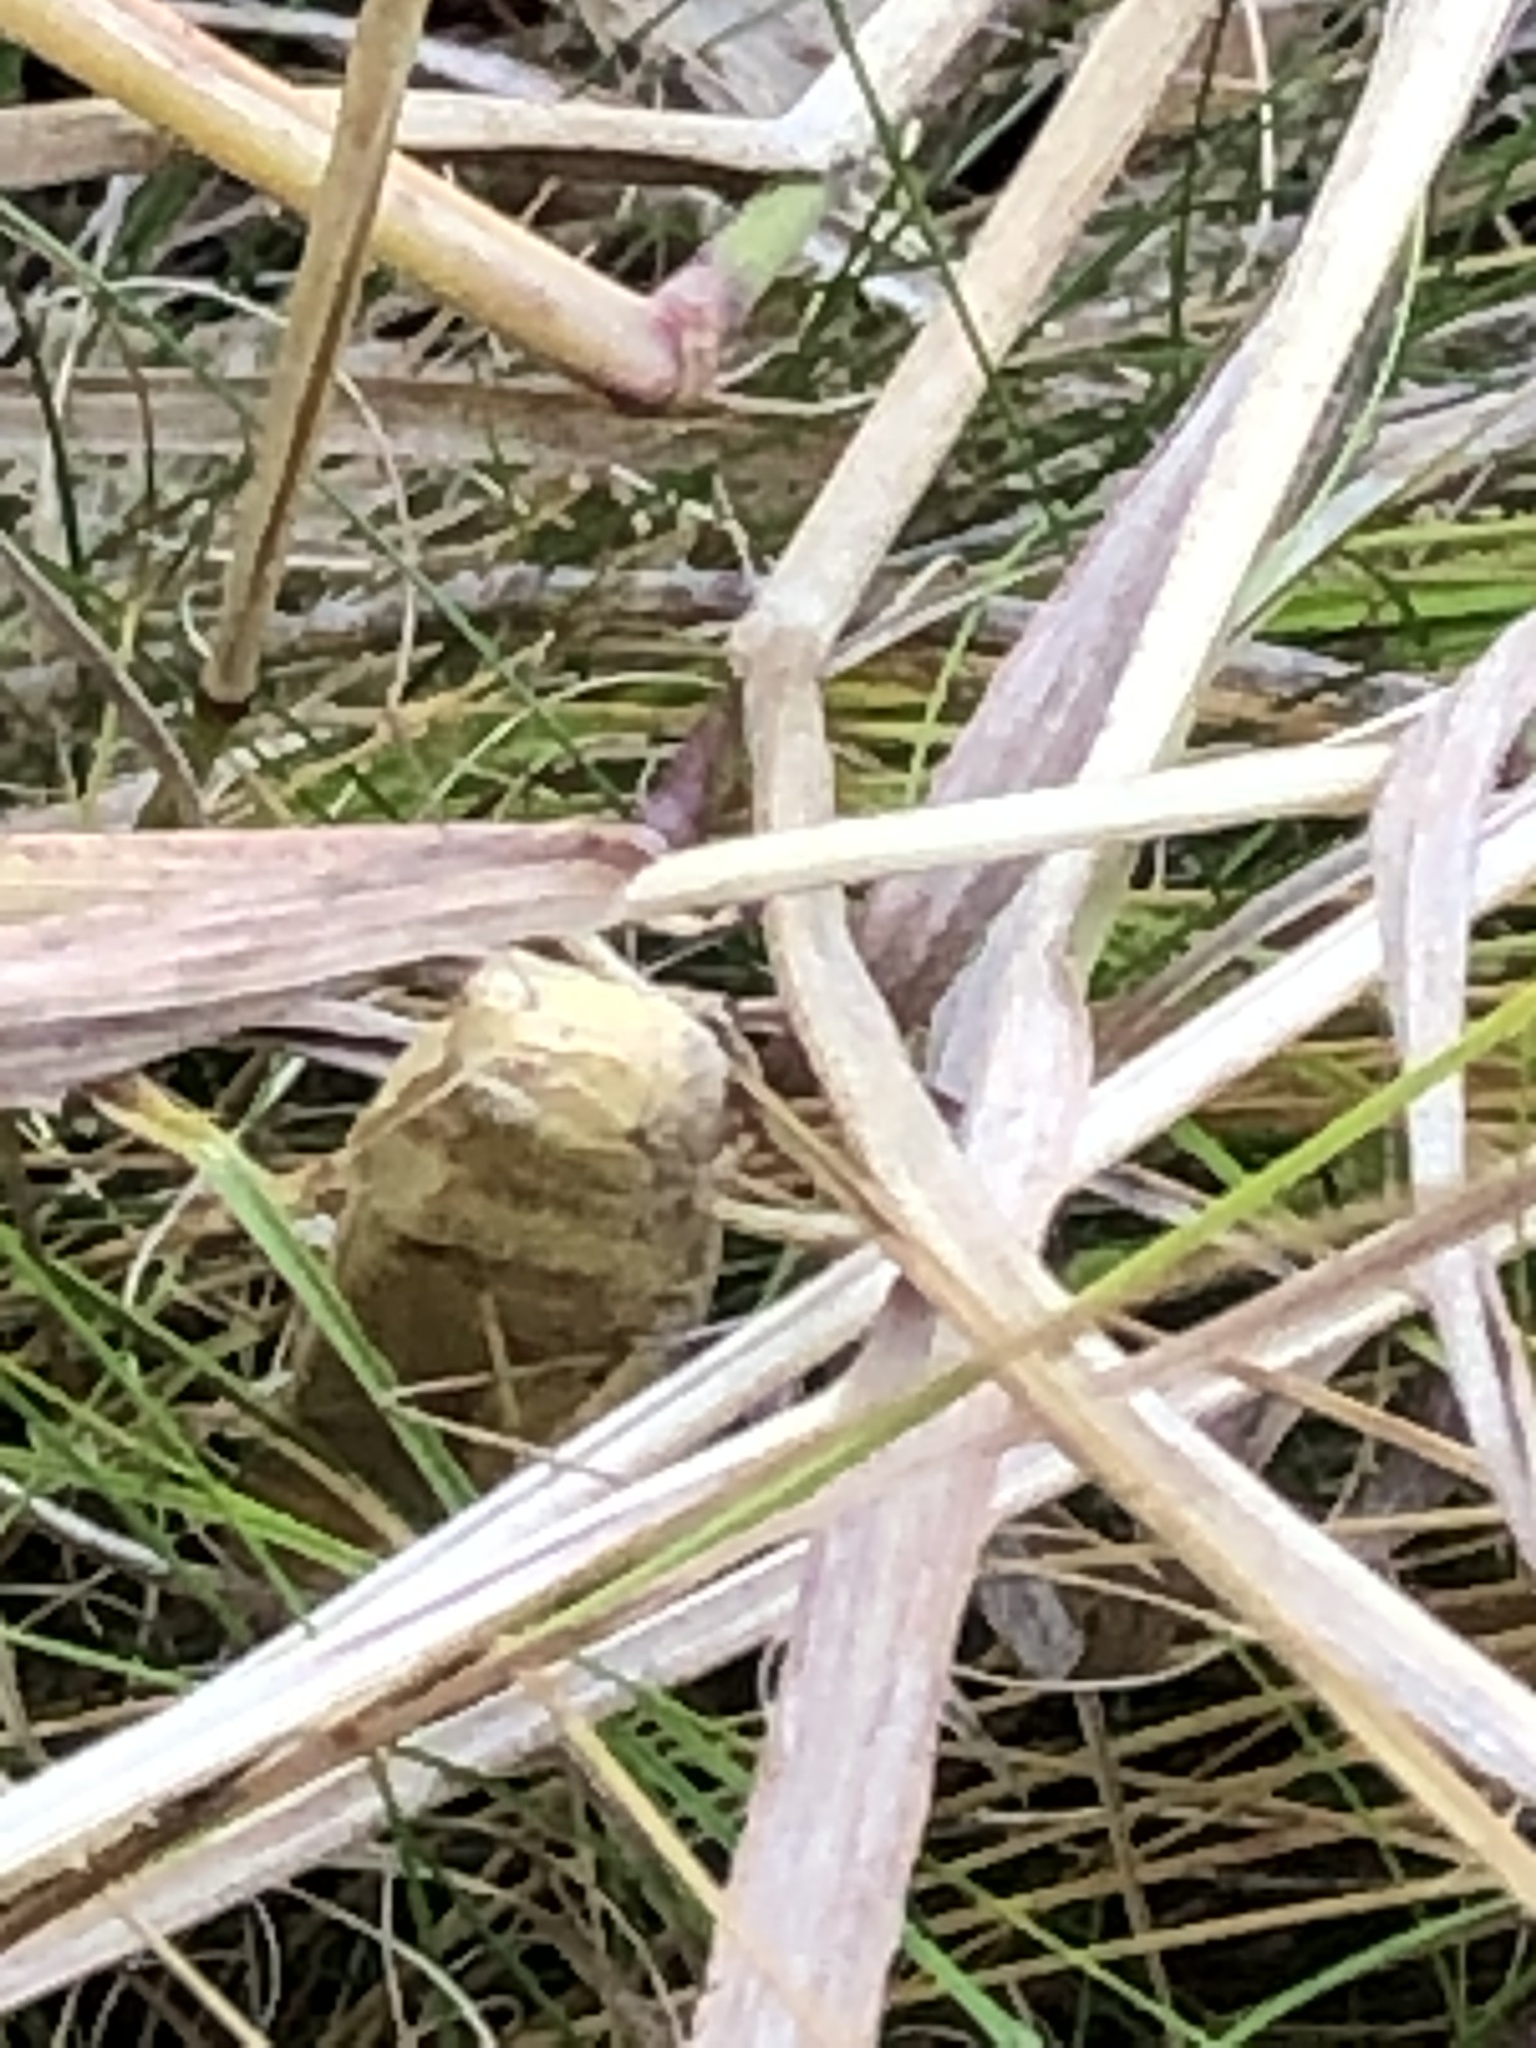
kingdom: Animalia
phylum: Arthropoda
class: Insecta
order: Orthoptera
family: Acrididae
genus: Dissosteira
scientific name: Dissosteira carolina
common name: Carolina grasshopper
